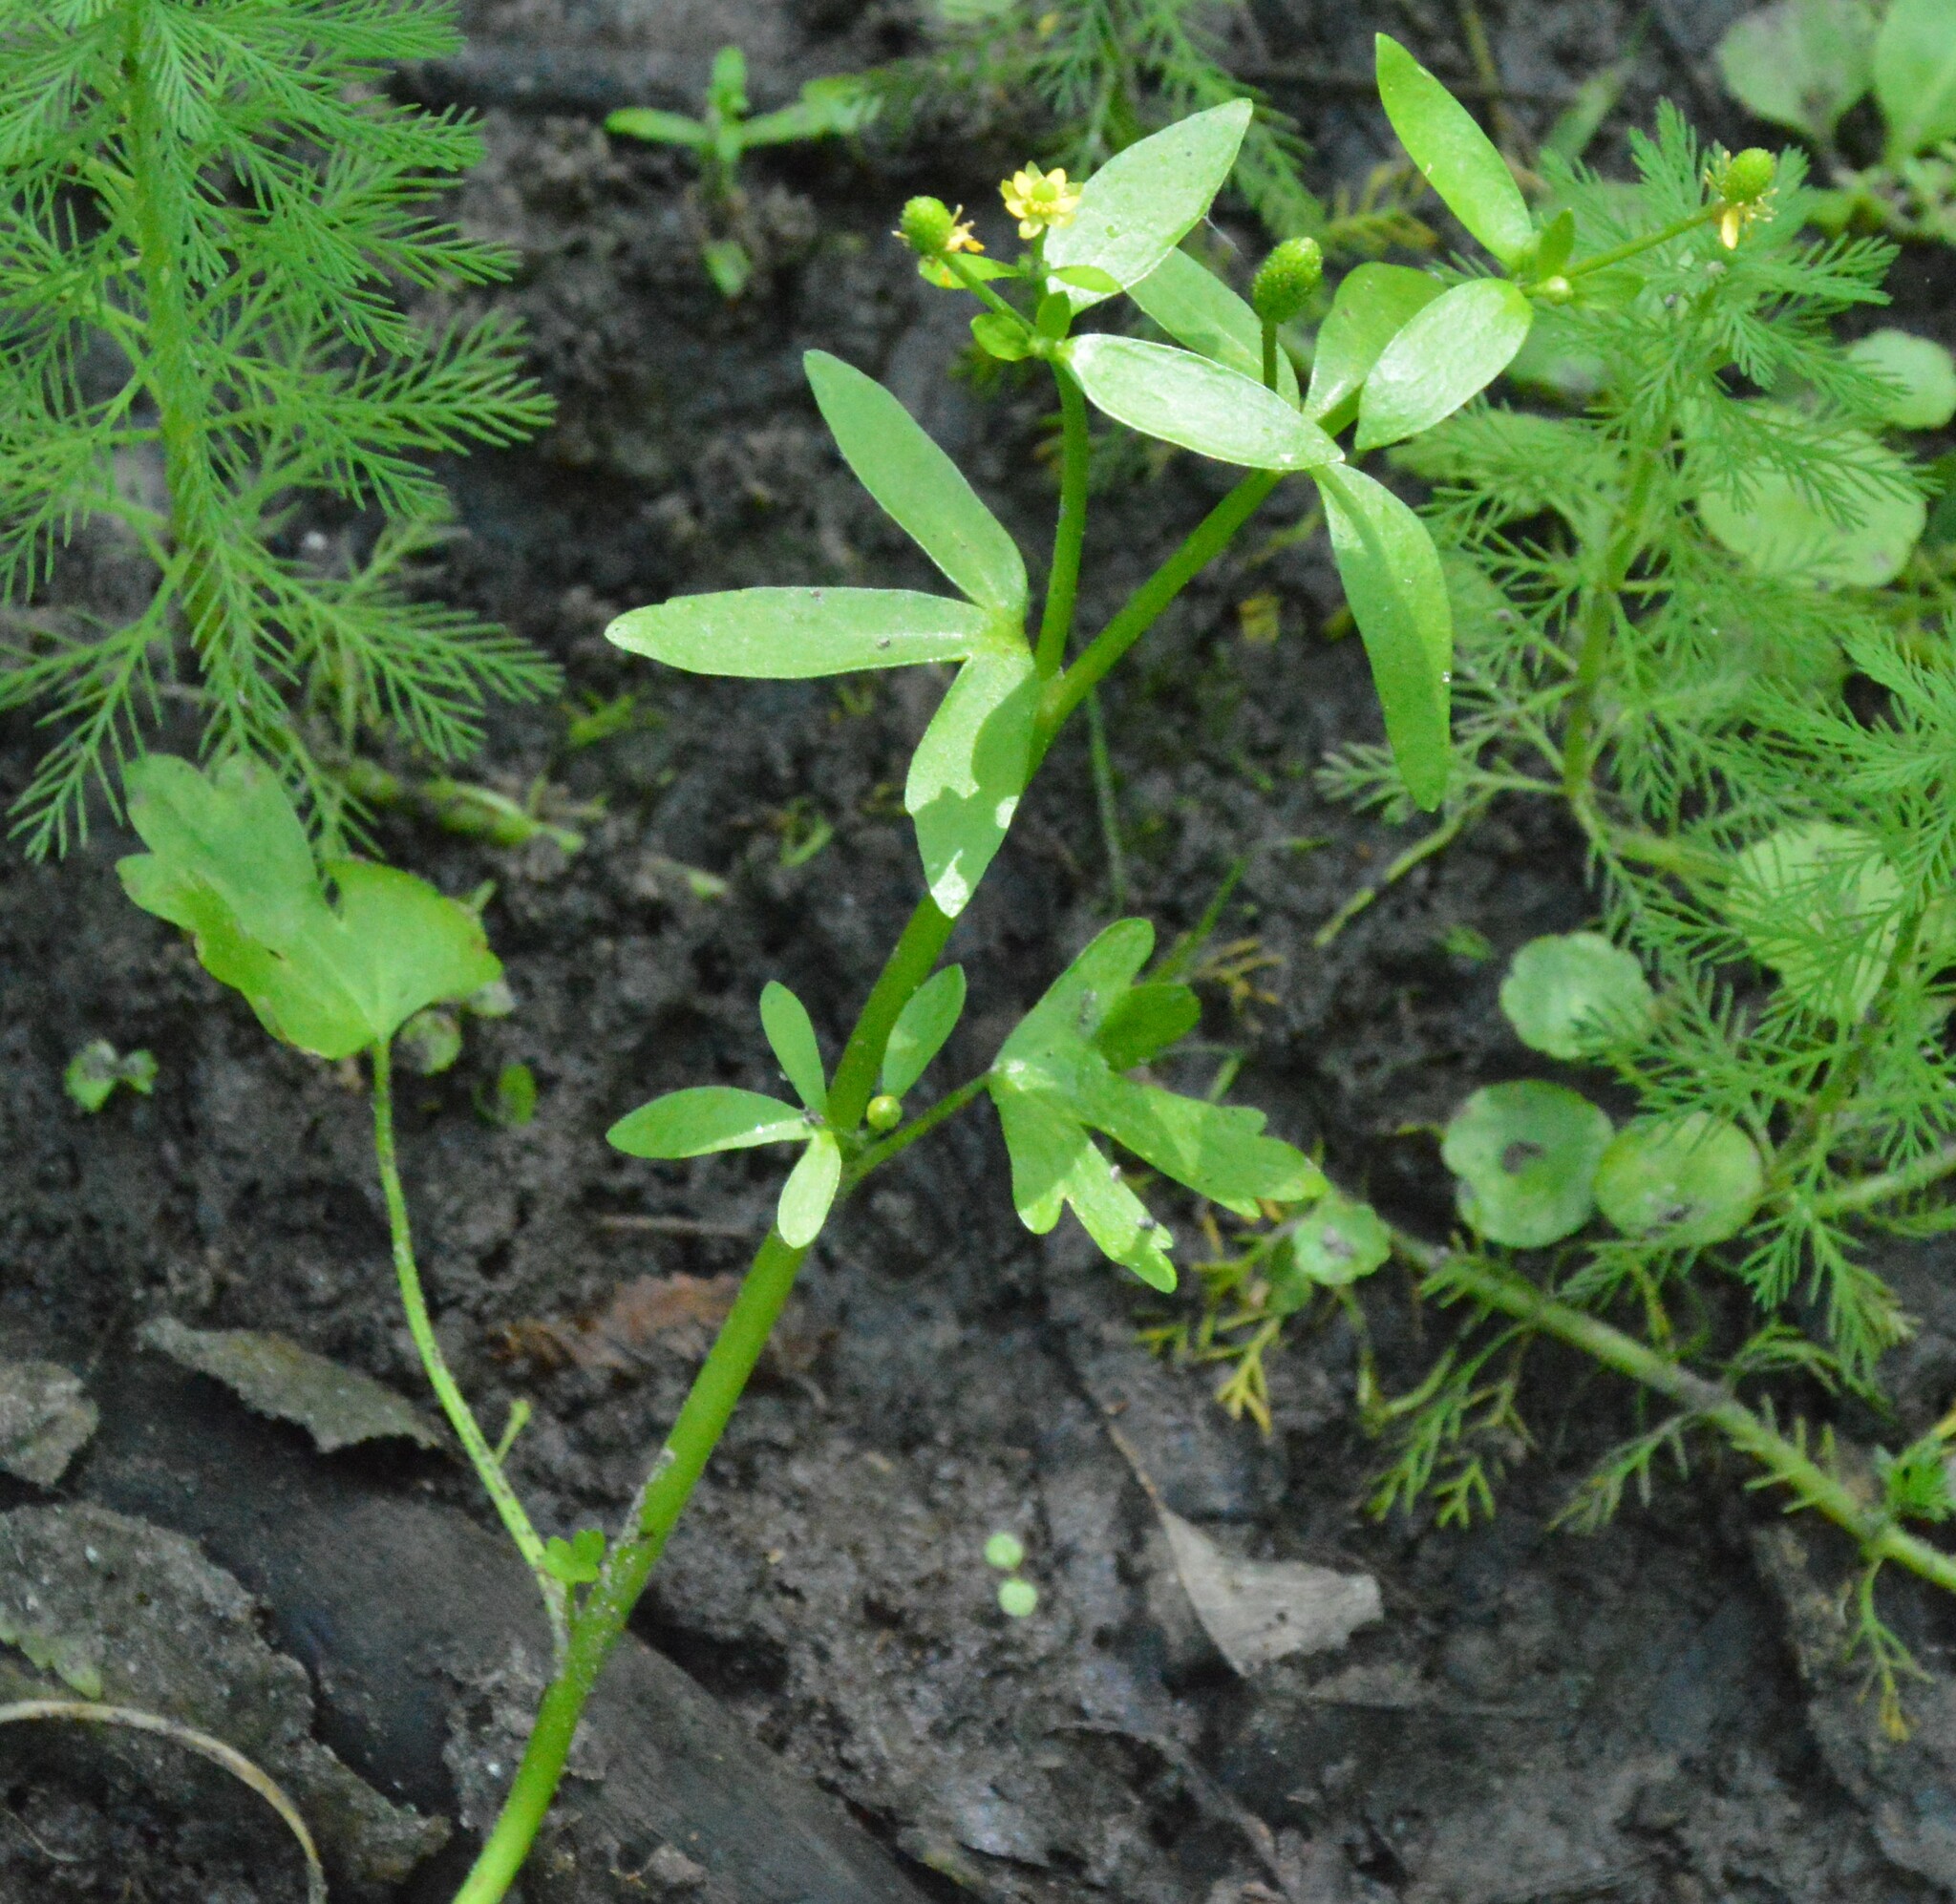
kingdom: Plantae
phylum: Tracheophyta
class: Magnoliopsida
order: Ranunculales
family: Ranunculaceae
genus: Ranunculus
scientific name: Ranunculus sceleratus
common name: Celery-leaved buttercup
